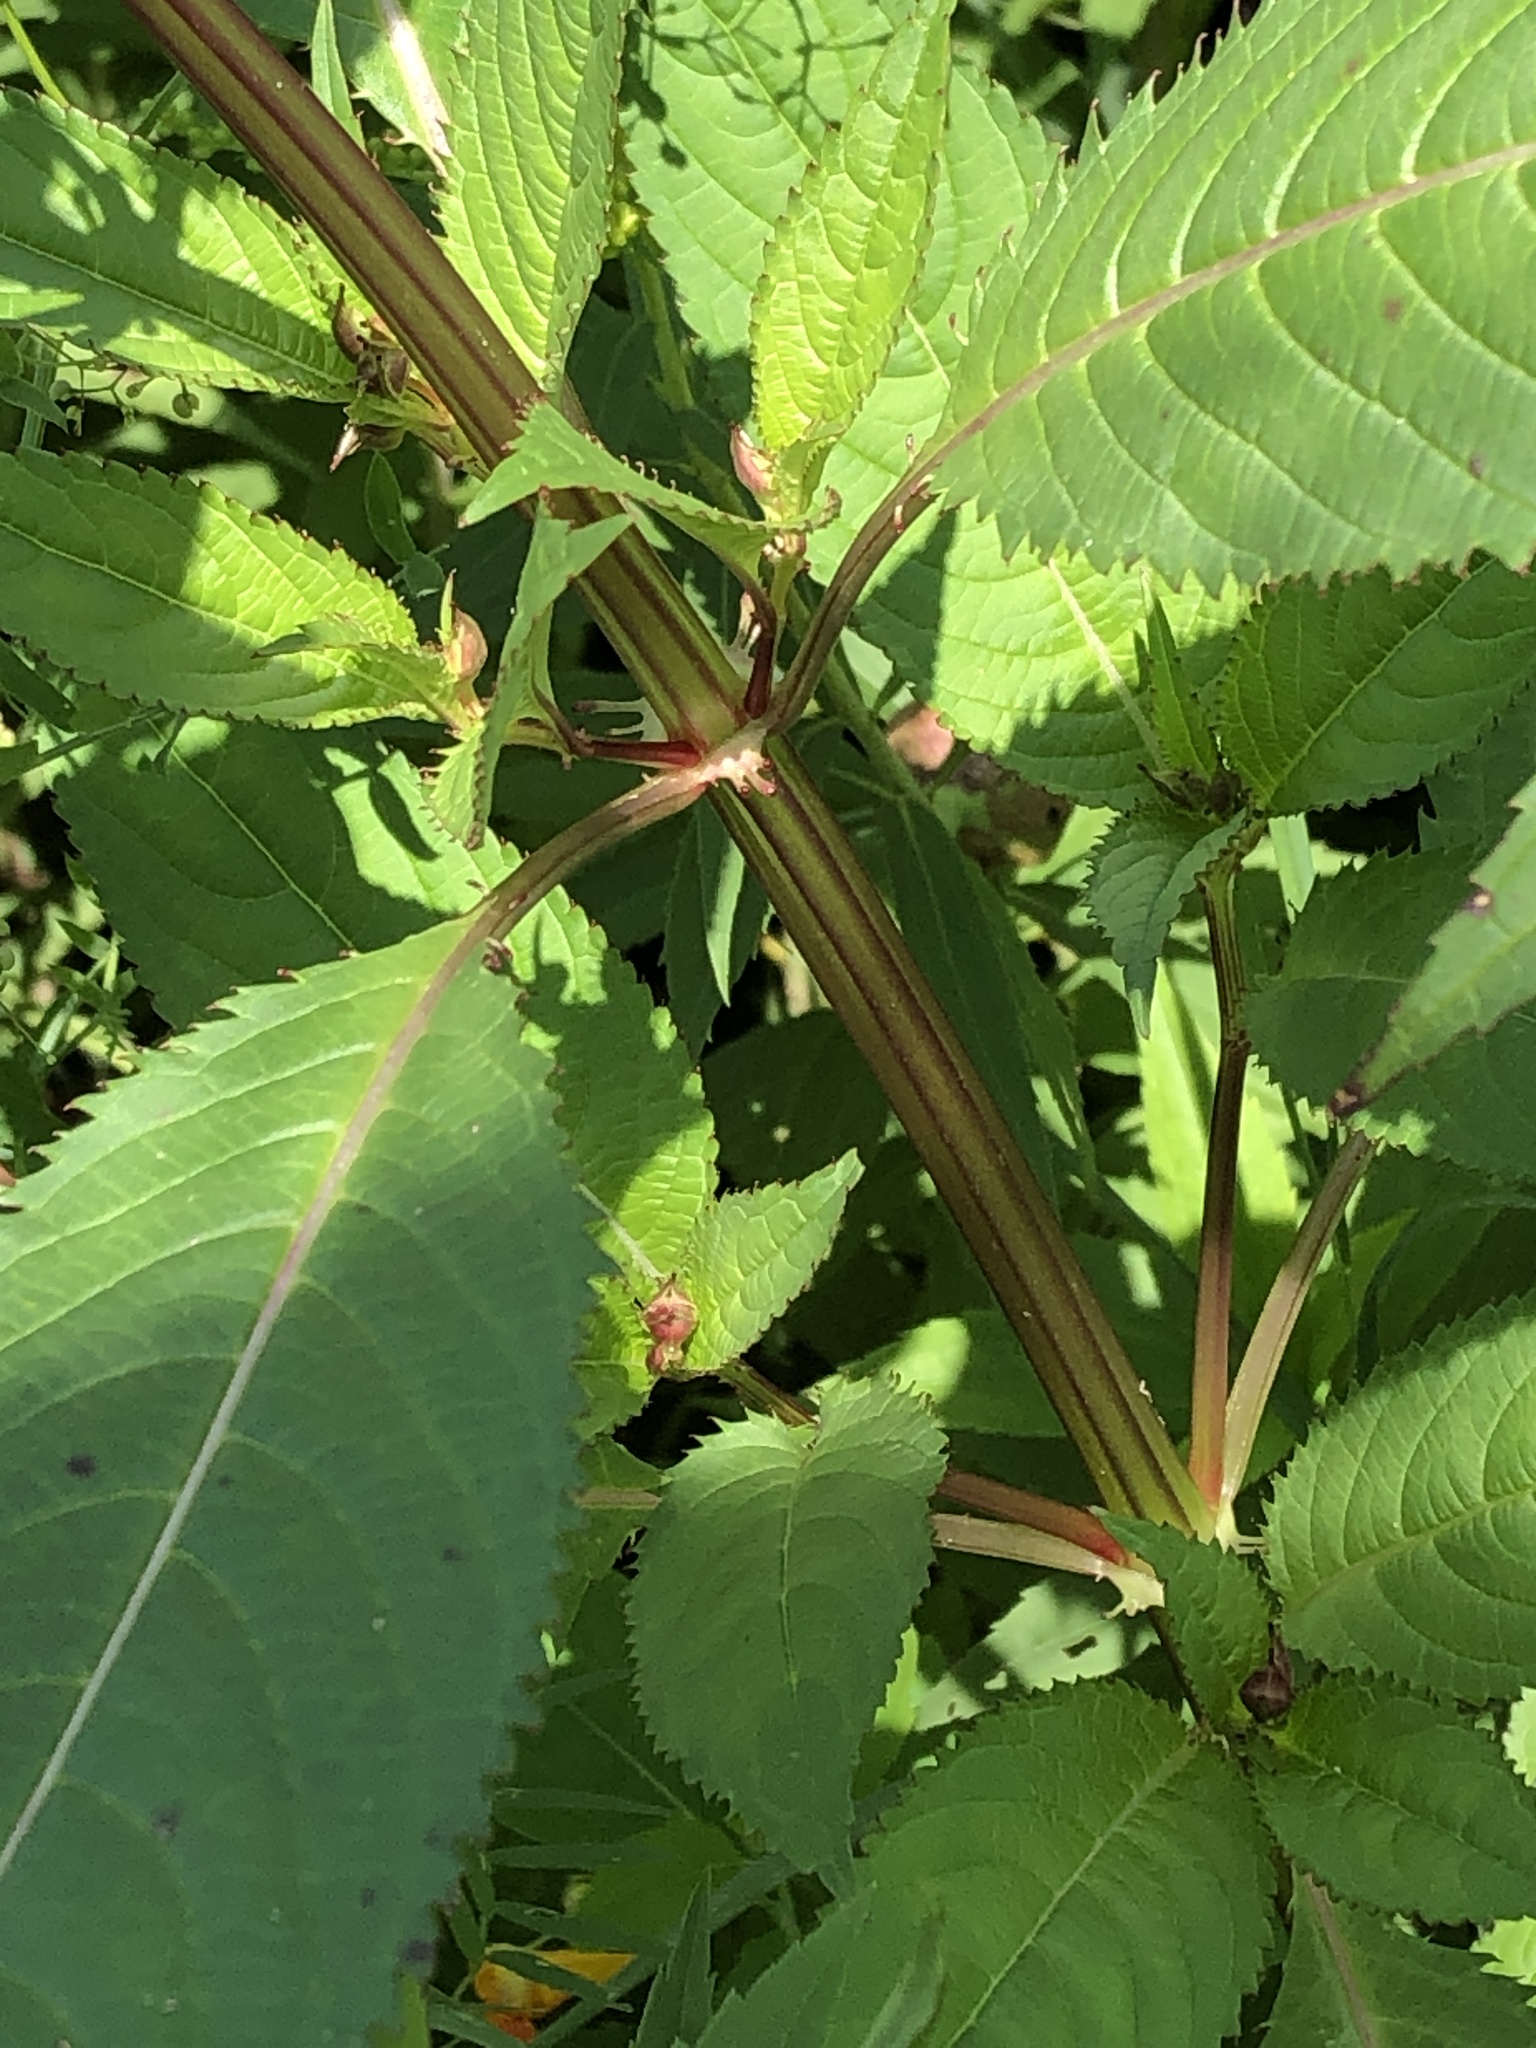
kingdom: Plantae
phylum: Tracheophyta
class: Magnoliopsida
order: Ericales
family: Balsaminaceae
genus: Impatiens
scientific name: Impatiens glandulifera
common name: Himalayan balsam
